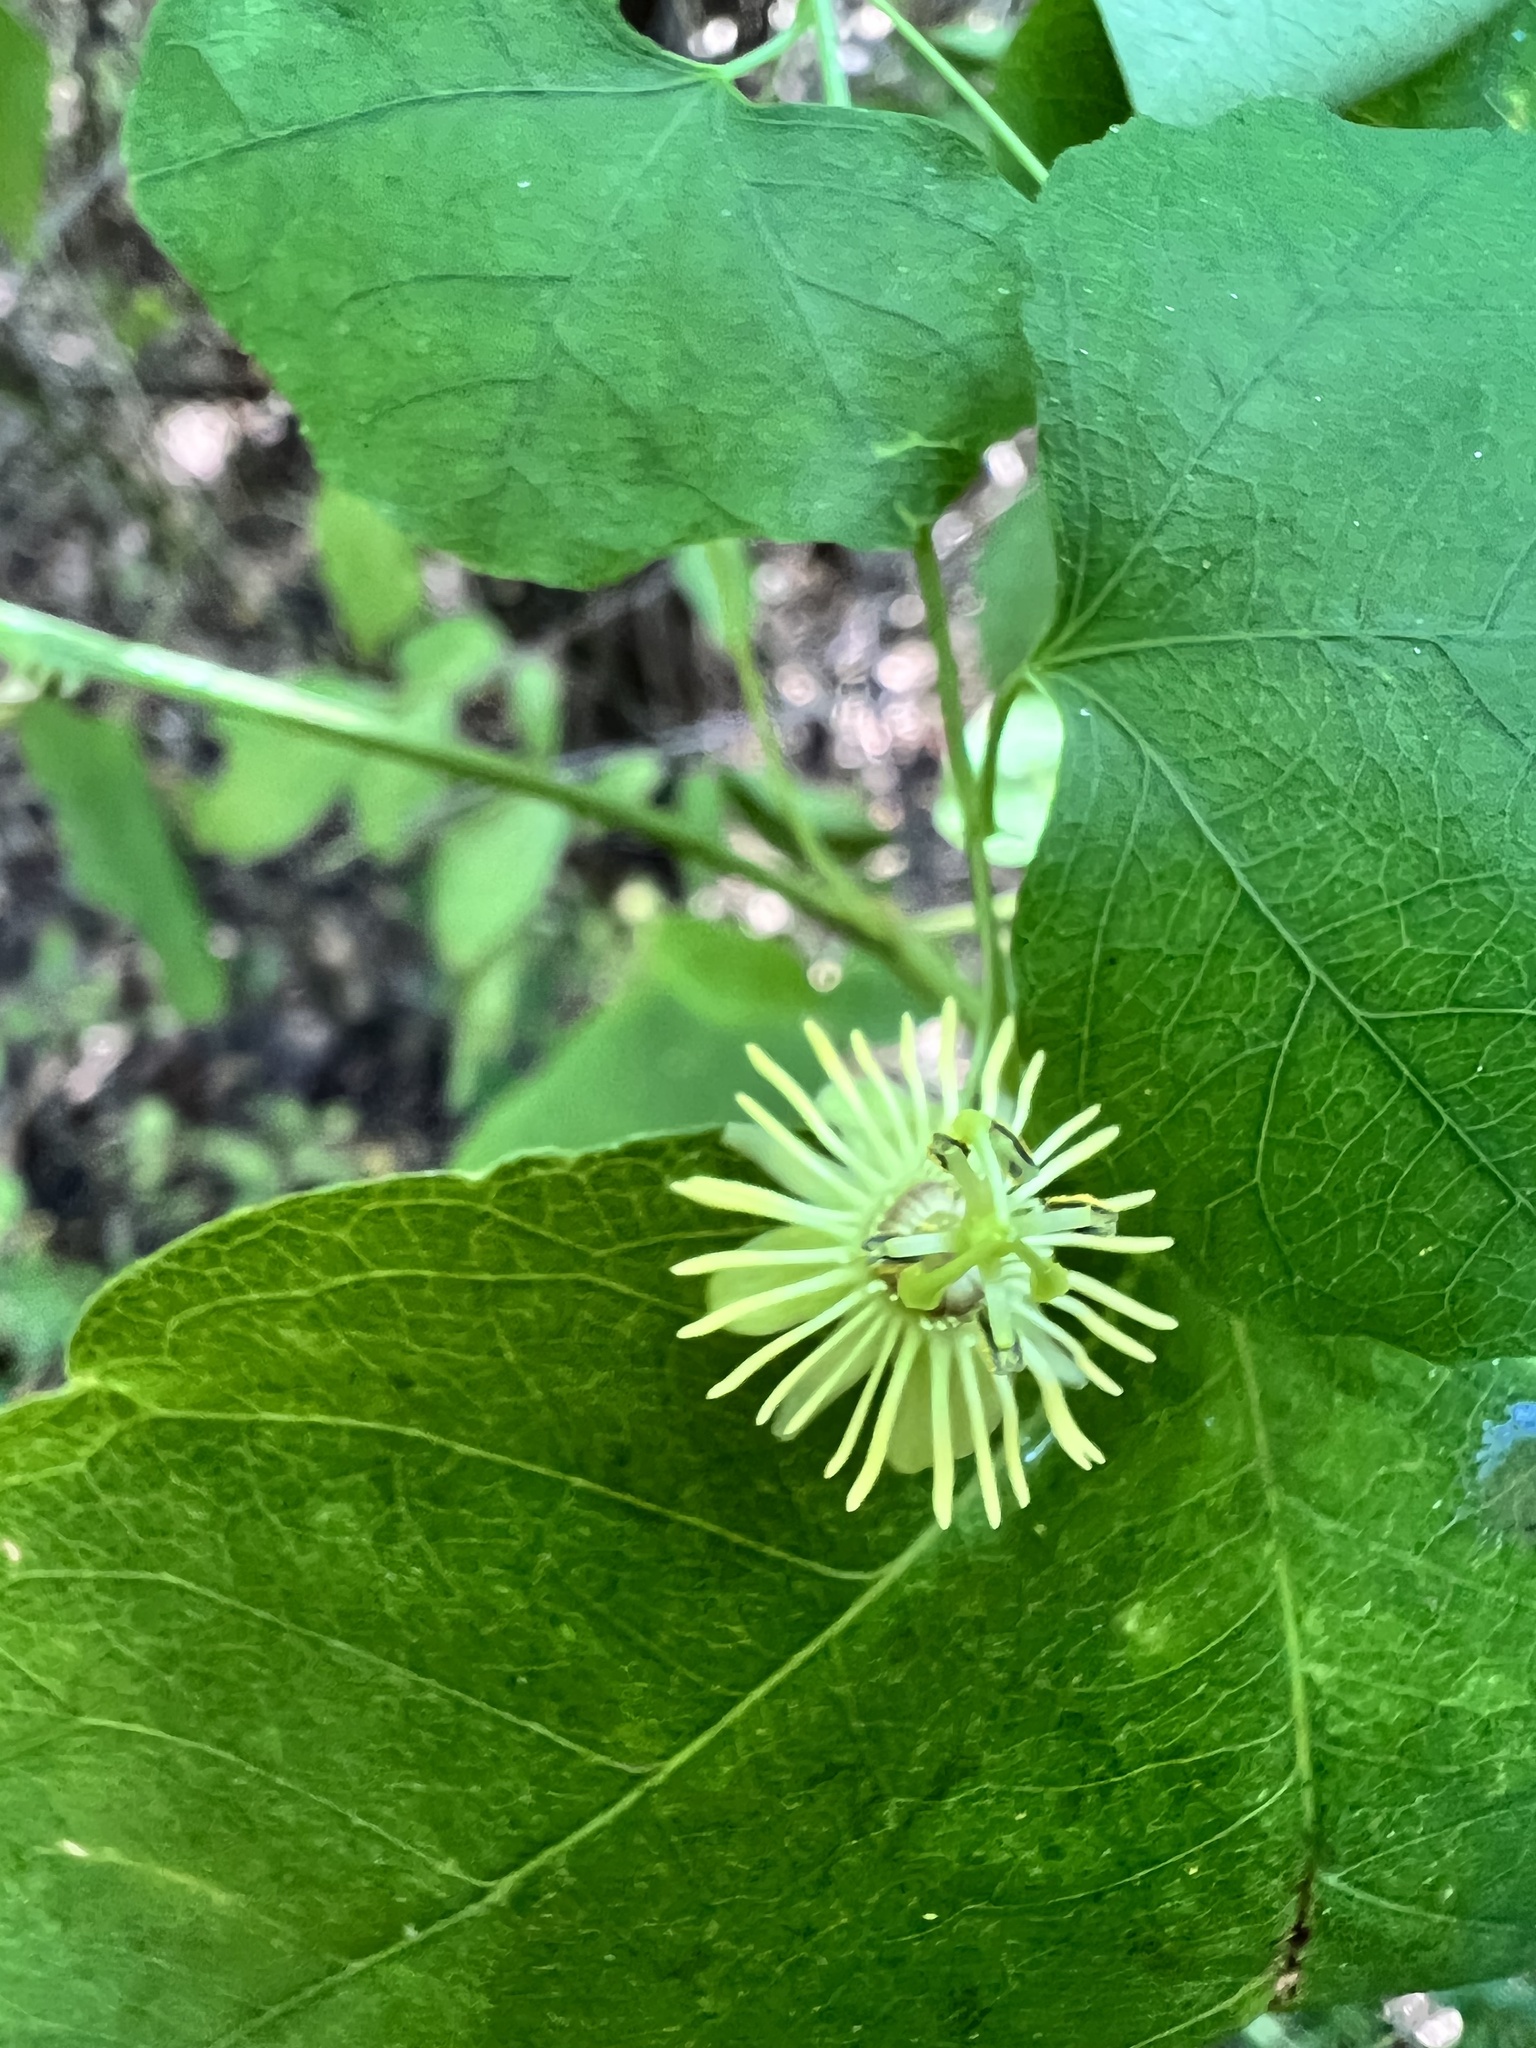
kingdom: Plantae
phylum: Tracheophyta
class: Magnoliopsida
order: Malpighiales
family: Passifloraceae
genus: Passiflora
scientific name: Passiflora lutea
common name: Yellow passionflower
